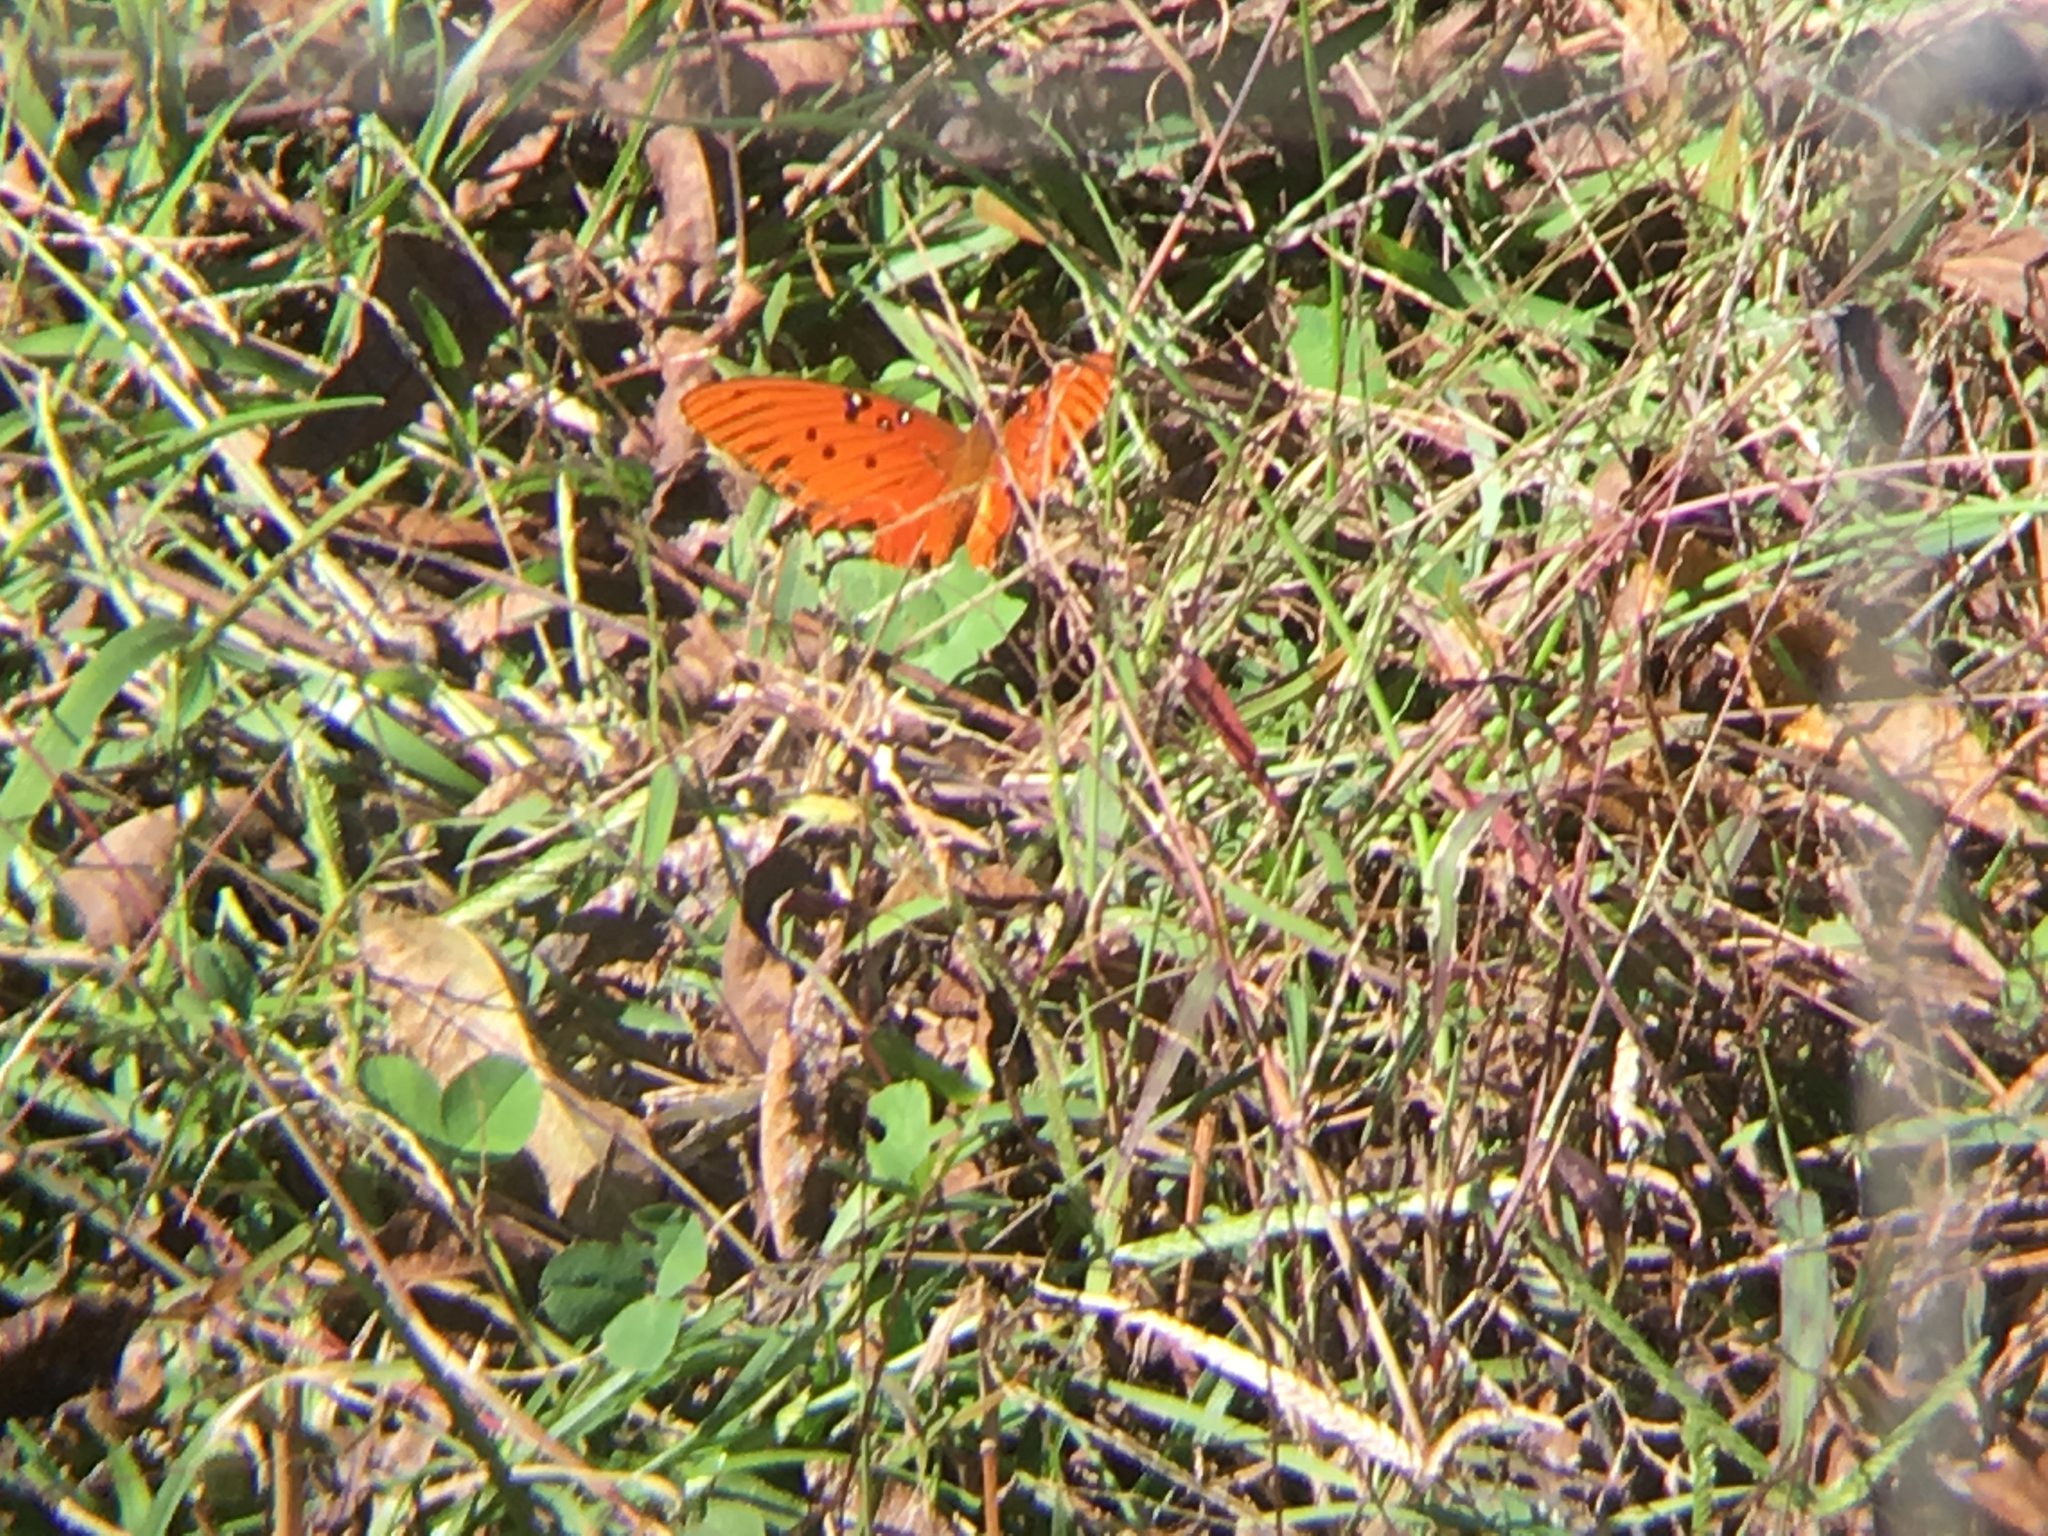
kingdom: Animalia
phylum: Arthropoda
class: Insecta
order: Lepidoptera
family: Nymphalidae
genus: Dione
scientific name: Dione vanillae
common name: Gulf fritillary
